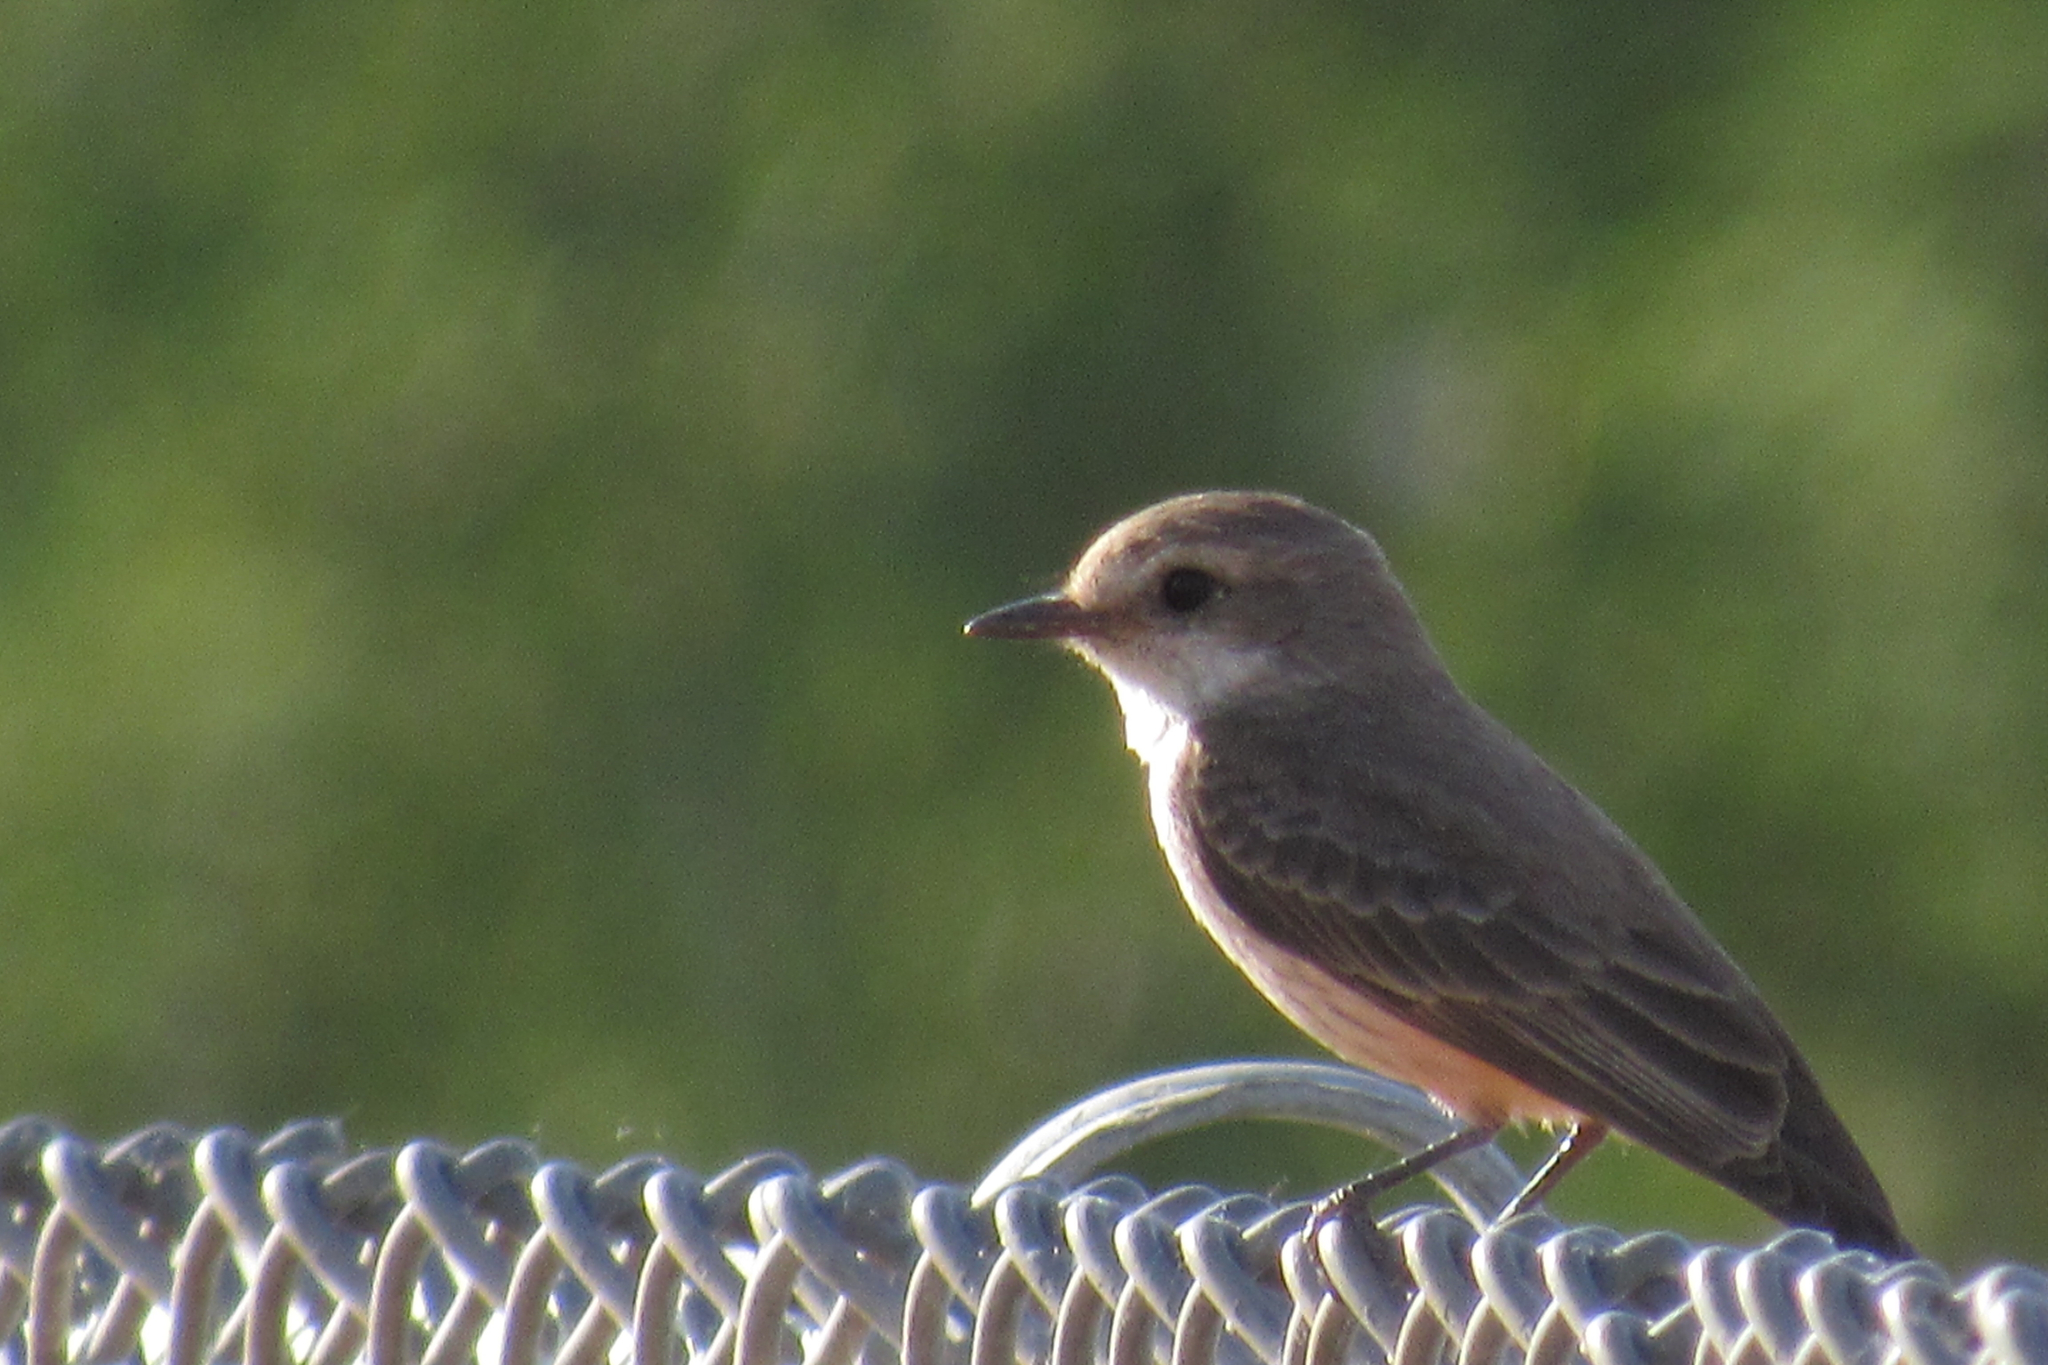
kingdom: Animalia
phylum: Chordata
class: Aves
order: Passeriformes
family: Tyrannidae
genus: Pyrocephalus
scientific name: Pyrocephalus rubinus
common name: Vermilion flycatcher
